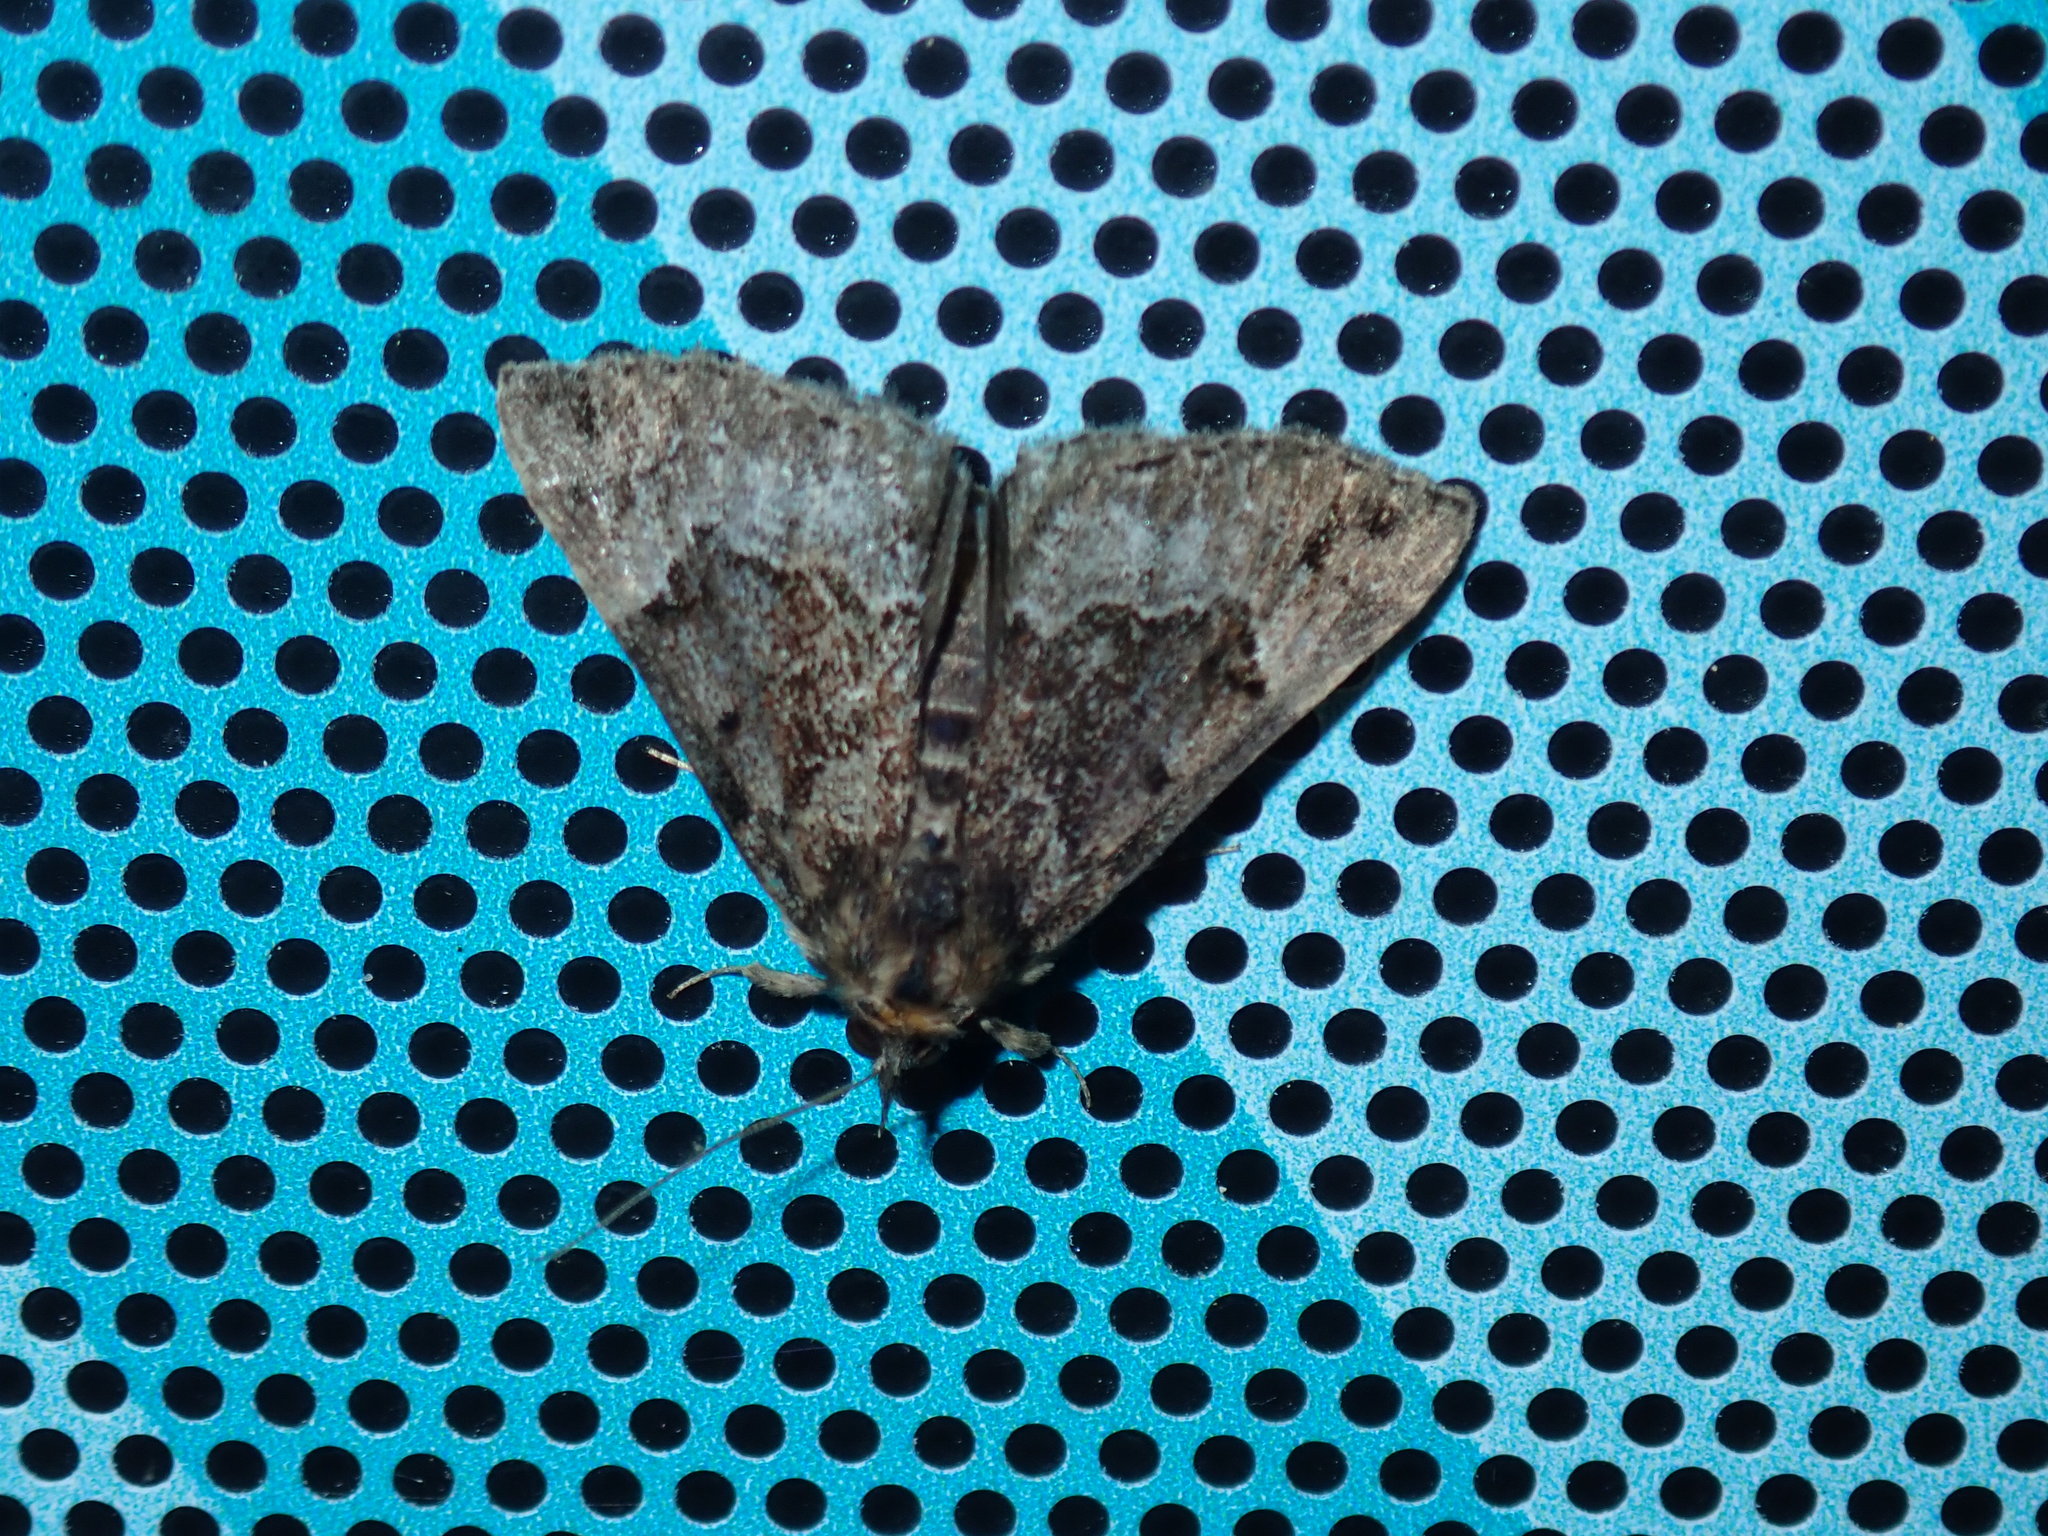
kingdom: Animalia
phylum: Arthropoda
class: Insecta
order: Lepidoptera
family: Erebidae
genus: Hypena
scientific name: Hypena palparia
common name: Mottled bomolocha moth
